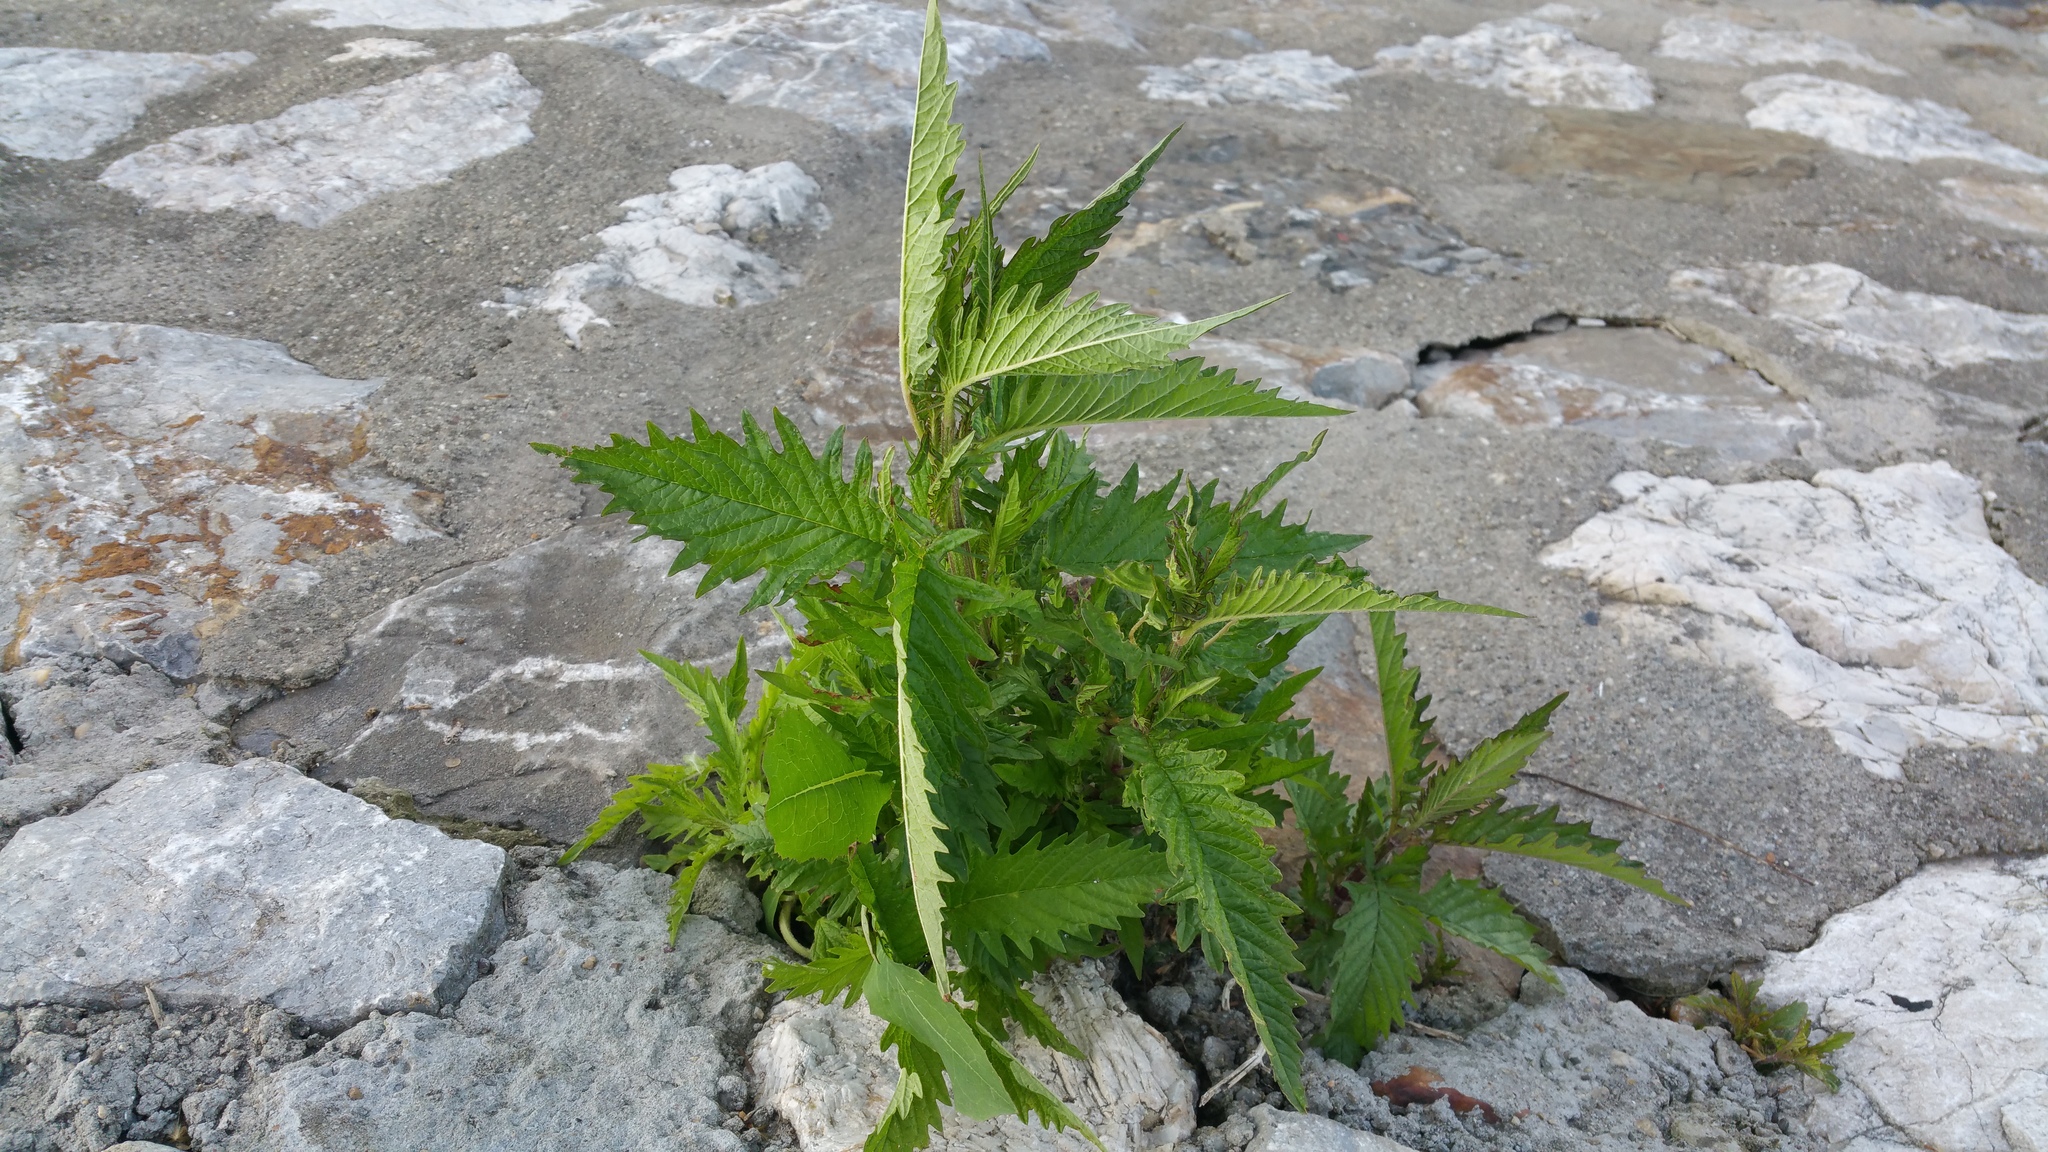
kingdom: Plantae
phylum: Tracheophyta
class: Magnoliopsida
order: Lamiales
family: Lamiaceae
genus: Lycopus
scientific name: Lycopus europaeus
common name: European bugleweed
